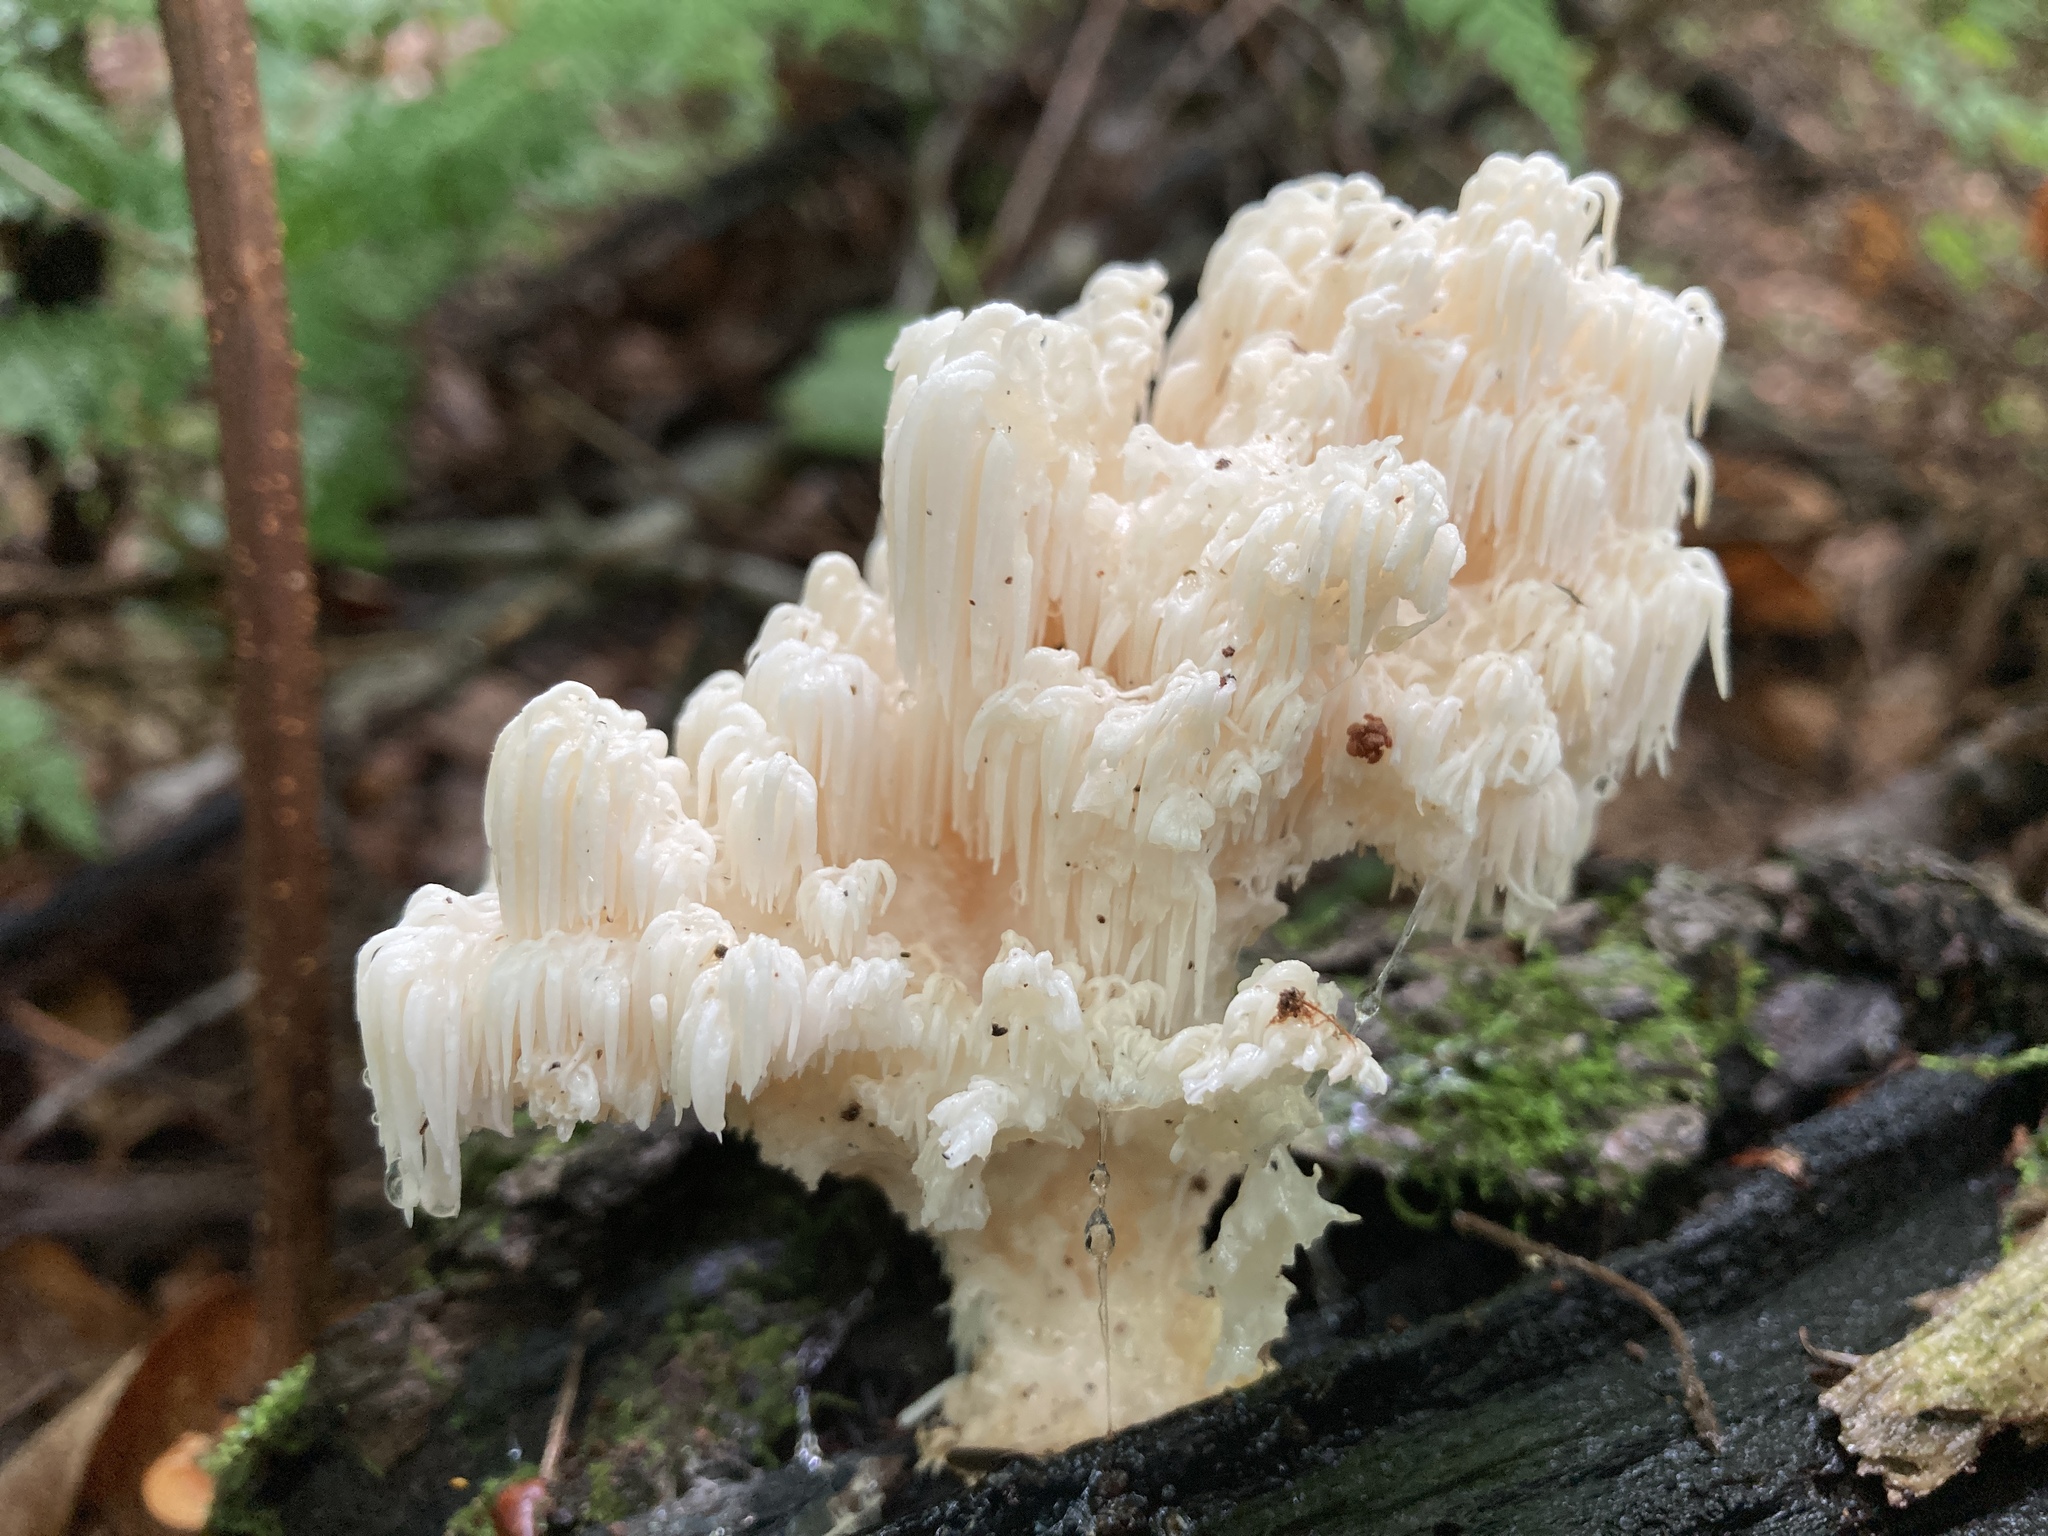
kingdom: Fungi
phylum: Basidiomycota
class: Agaricomycetes
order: Russulales
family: Hericiaceae
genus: Hericium
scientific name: Hericium americanum
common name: Bear's head tooth
